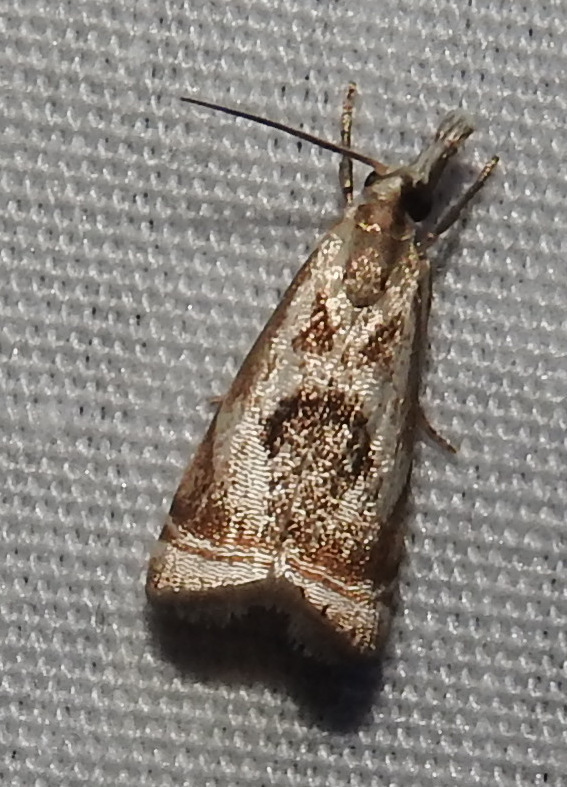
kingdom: Animalia
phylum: Arthropoda
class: Insecta
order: Lepidoptera
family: Crambidae
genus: Microcrambus
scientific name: Microcrambus elegans
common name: Elegant grass-veneer
